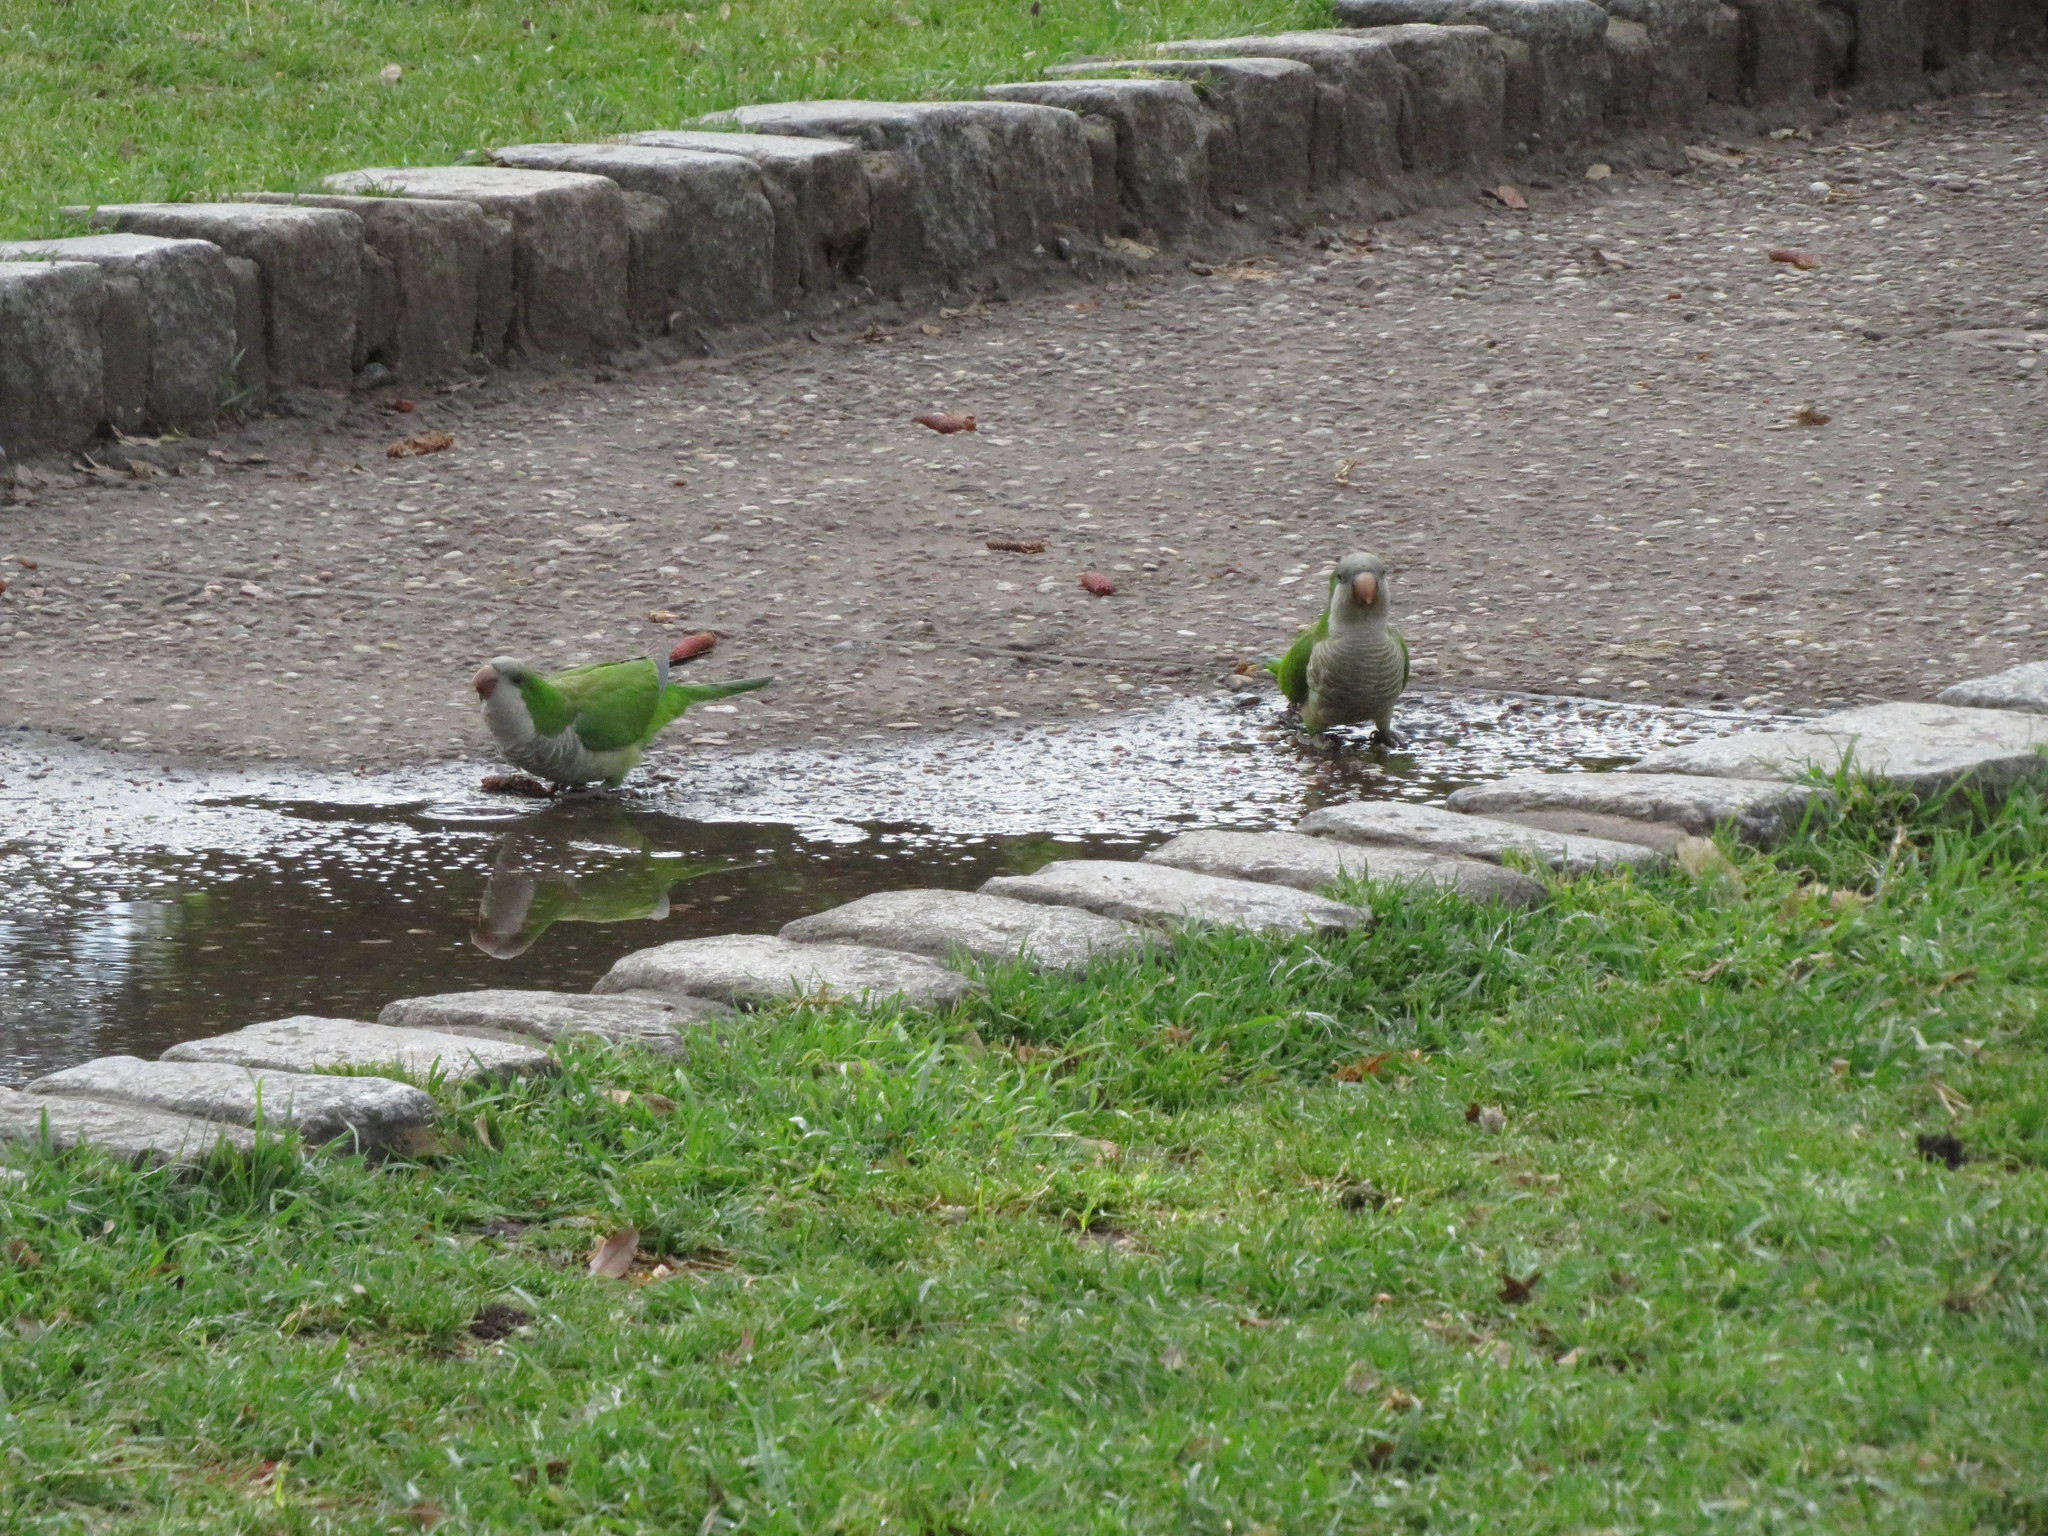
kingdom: Animalia
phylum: Chordata
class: Aves
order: Psittaciformes
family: Psittacidae
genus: Myiopsitta
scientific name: Myiopsitta monachus
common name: Monk parakeet
